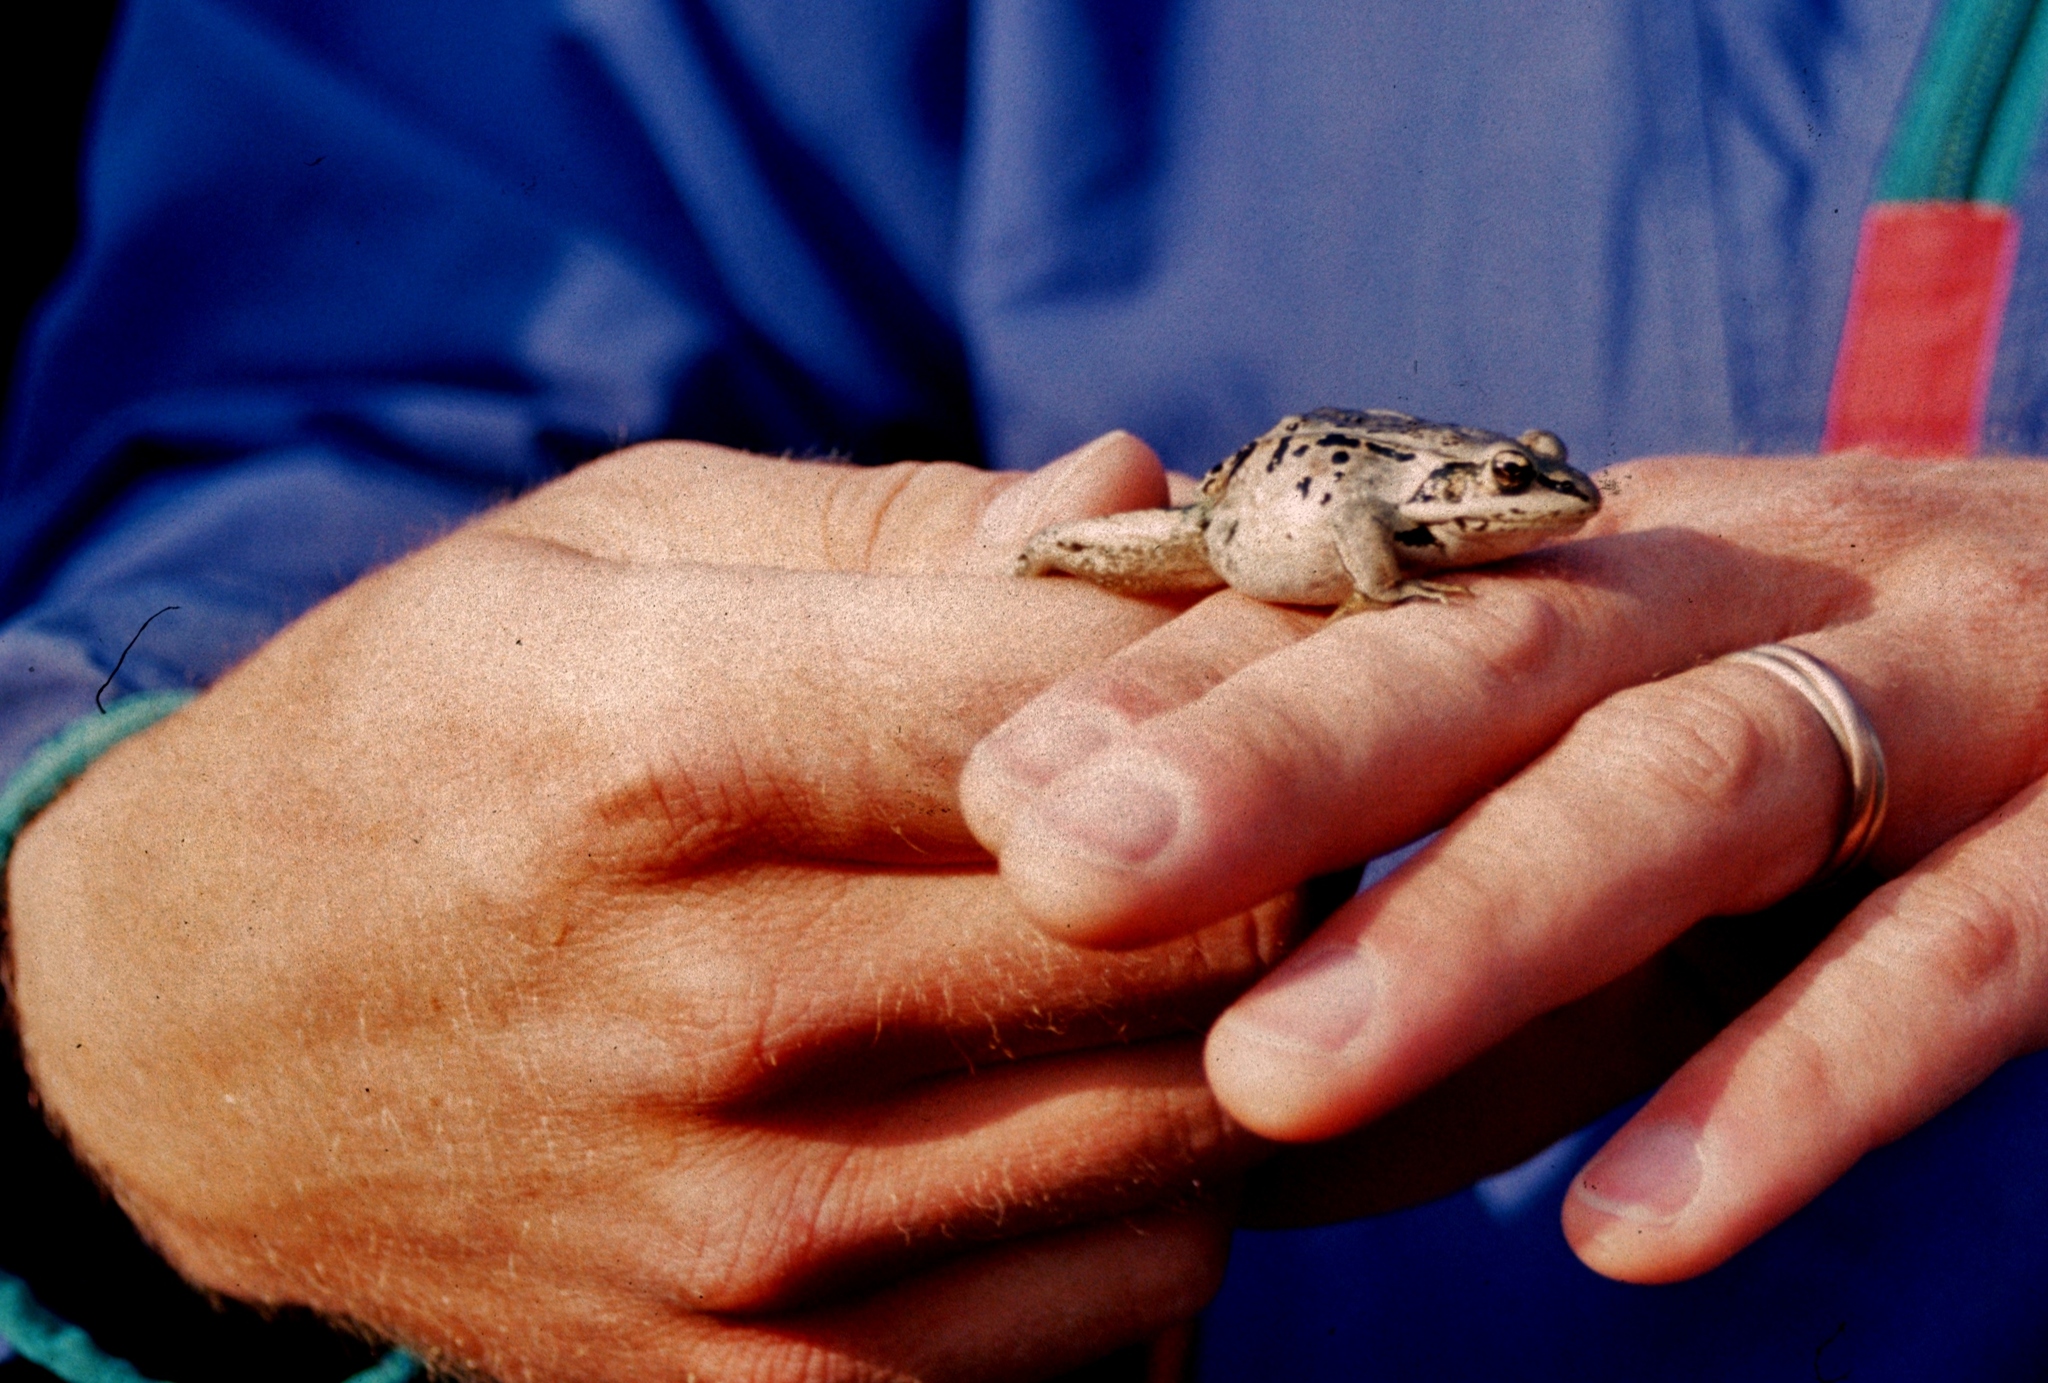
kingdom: Animalia
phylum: Chordata
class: Amphibia
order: Anura
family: Ranidae
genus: Lithobates
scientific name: Lithobates sylvaticus
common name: Wood frog
